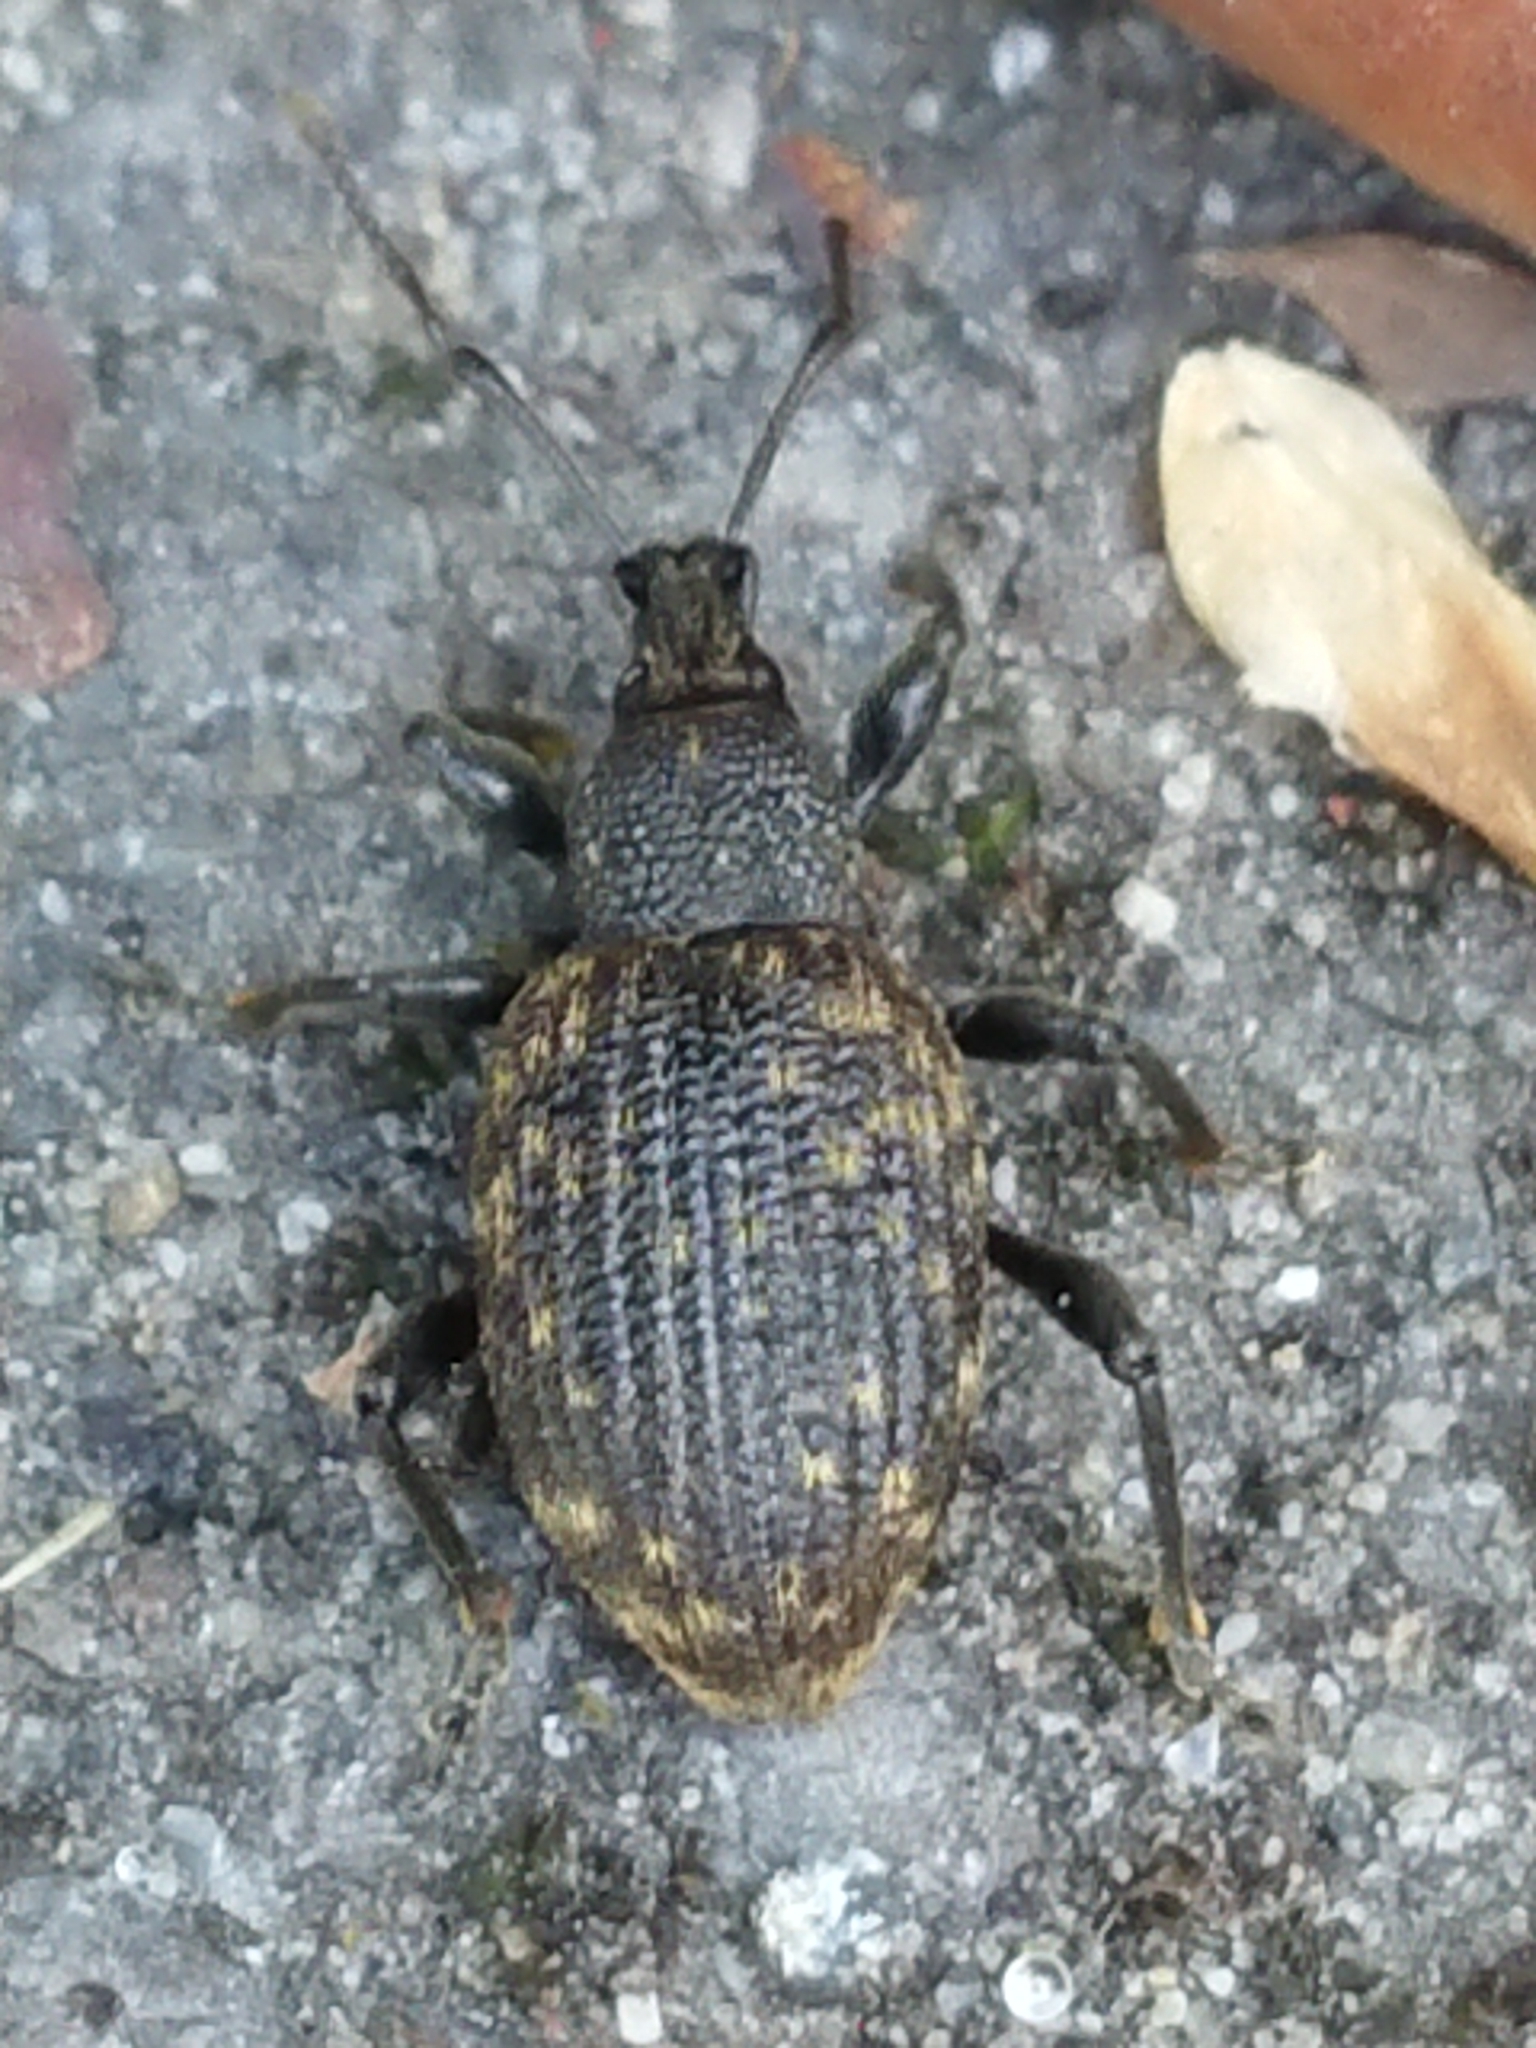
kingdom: Animalia
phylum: Arthropoda
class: Insecta
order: Coleoptera
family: Curculionidae
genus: Otiorhynchus
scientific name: Otiorhynchus sulcatus
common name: Black vine weevil
